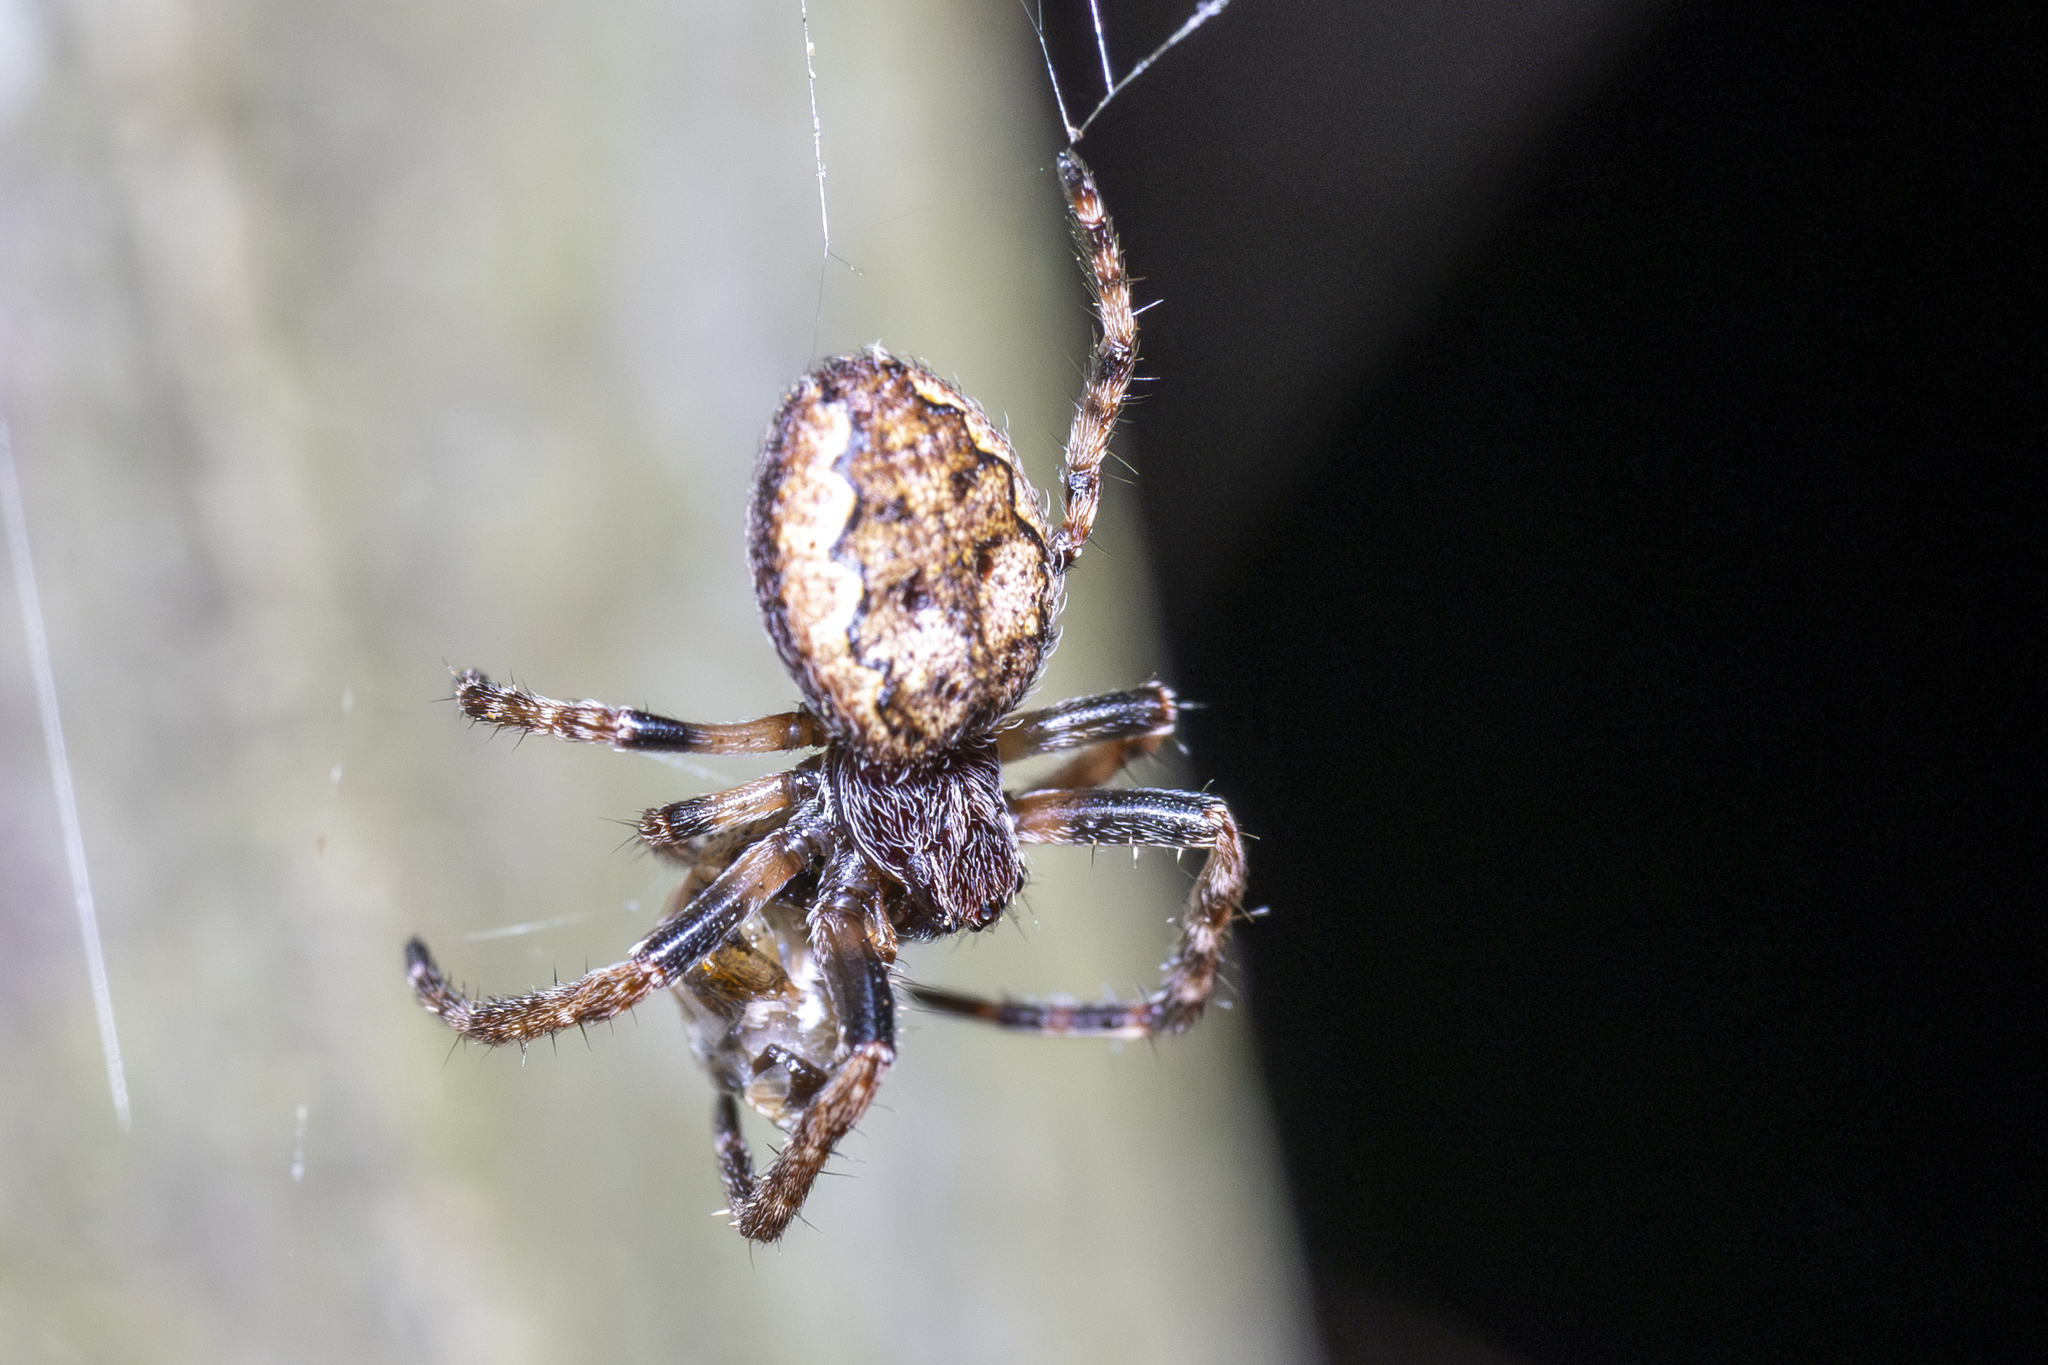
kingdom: Animalia
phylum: Arthropoda
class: Arachnida
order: Araneae
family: Araneidae
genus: Nuctenea
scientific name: Nuctenea umbratica
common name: Toad spider
